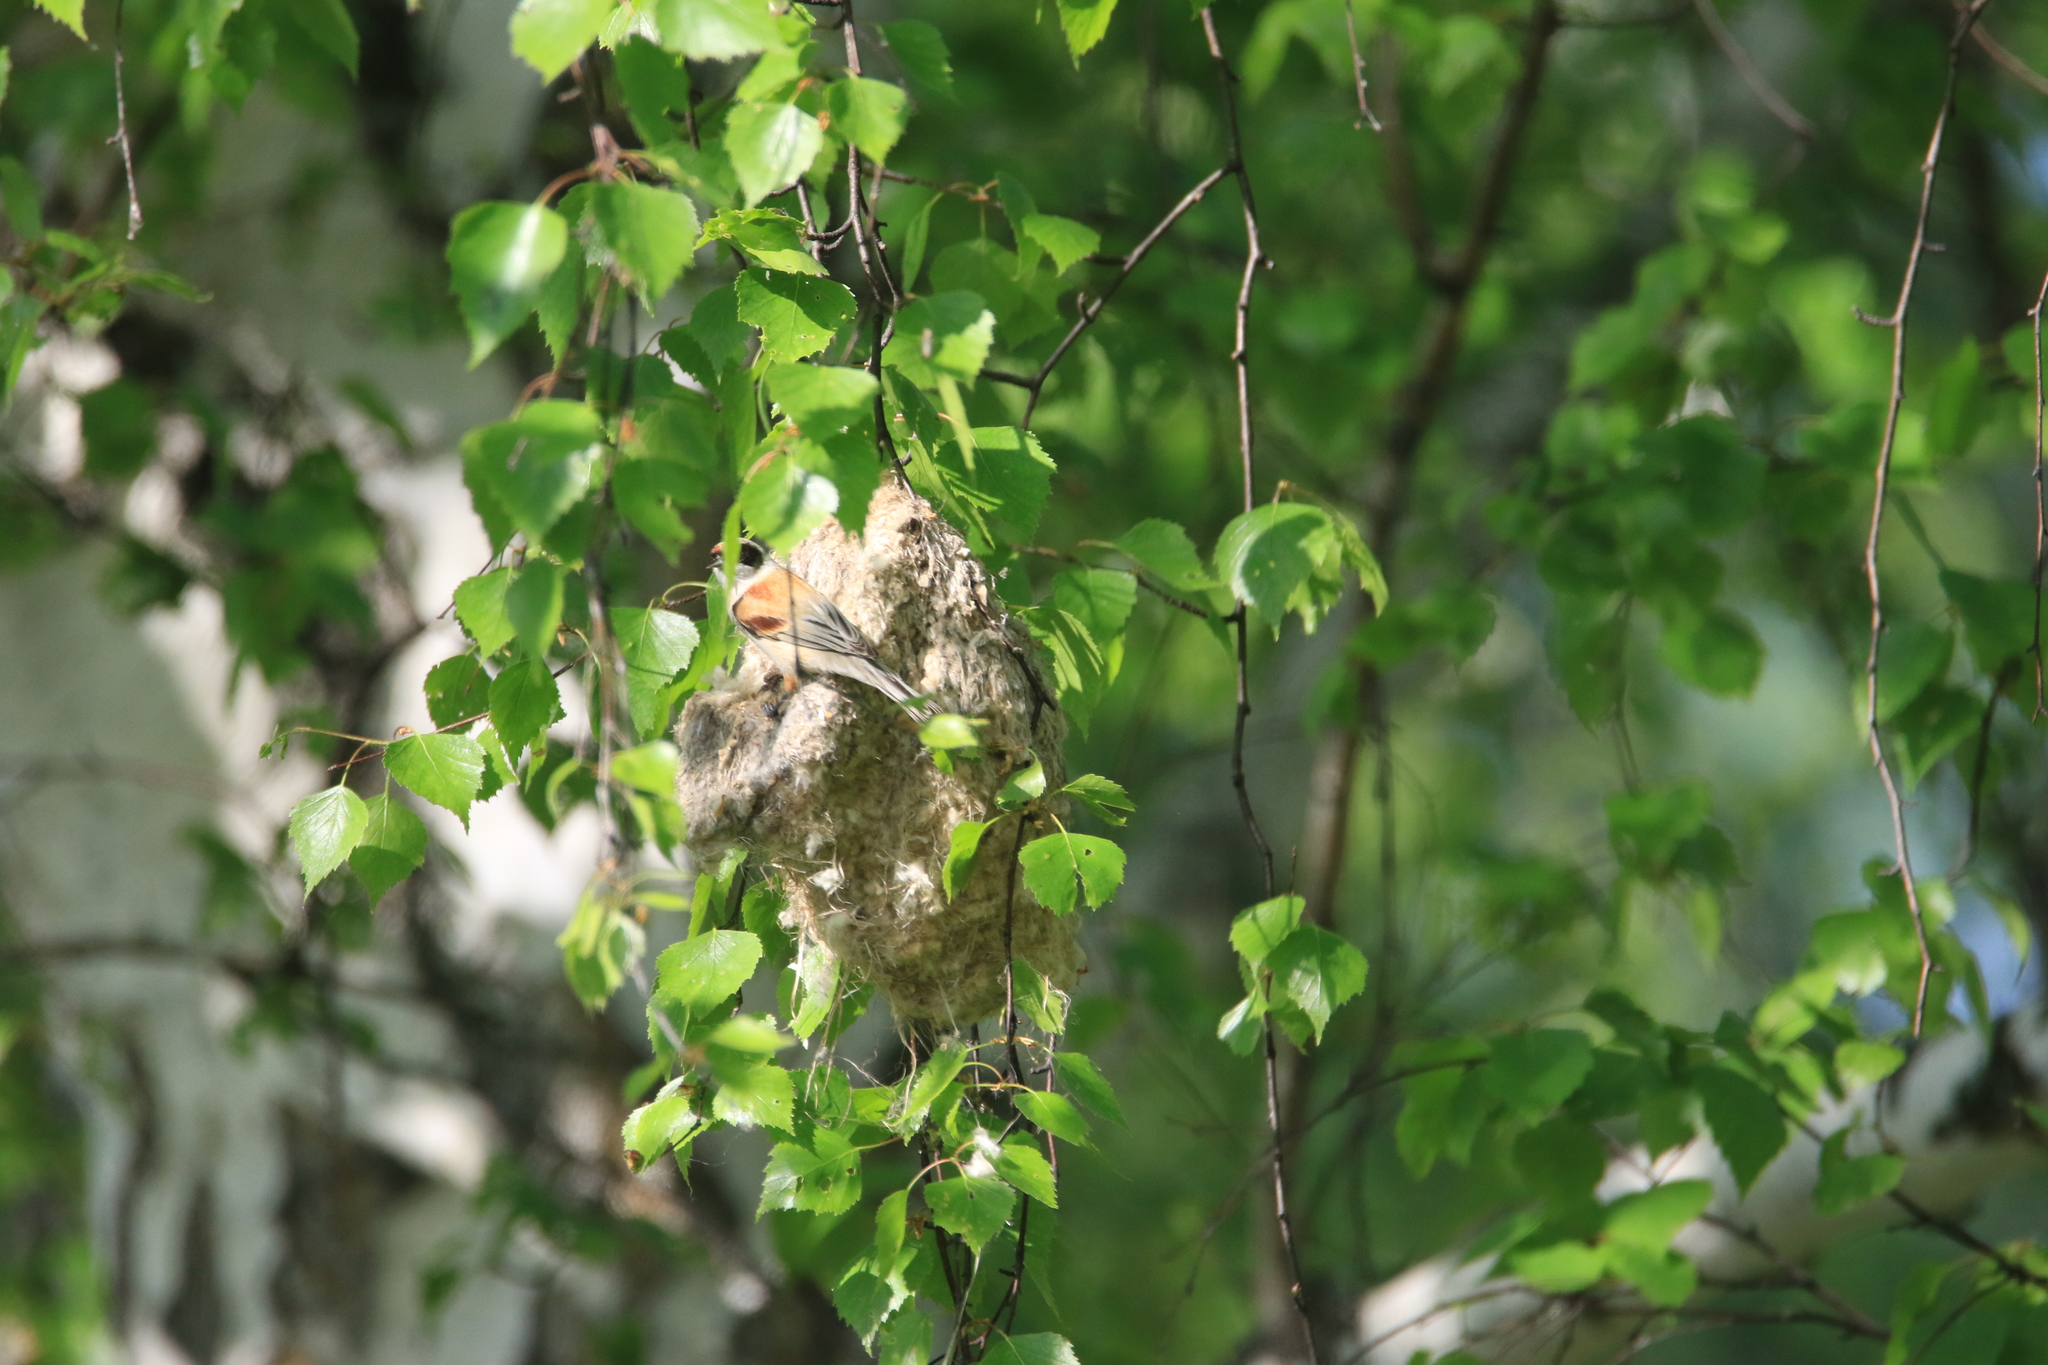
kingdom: Animalia
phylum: Chordata
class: Aves
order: Passeriformes
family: Remizidae
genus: Remiz
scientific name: Remiz pendulinus
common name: Eurasian penduline tit
